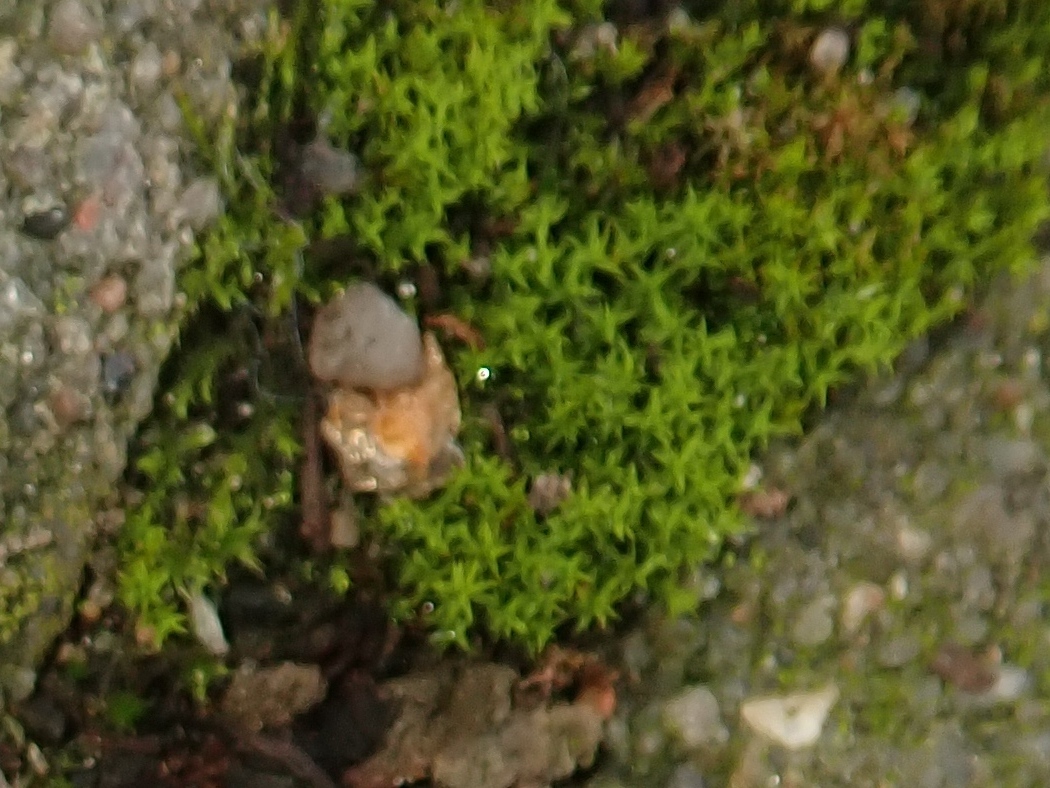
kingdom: Plantae
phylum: Bryophyta
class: Bryopsida
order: Pottiales
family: Pottiaceae
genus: Barbula
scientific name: Barbula unguiculata
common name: Prickly beard moss
